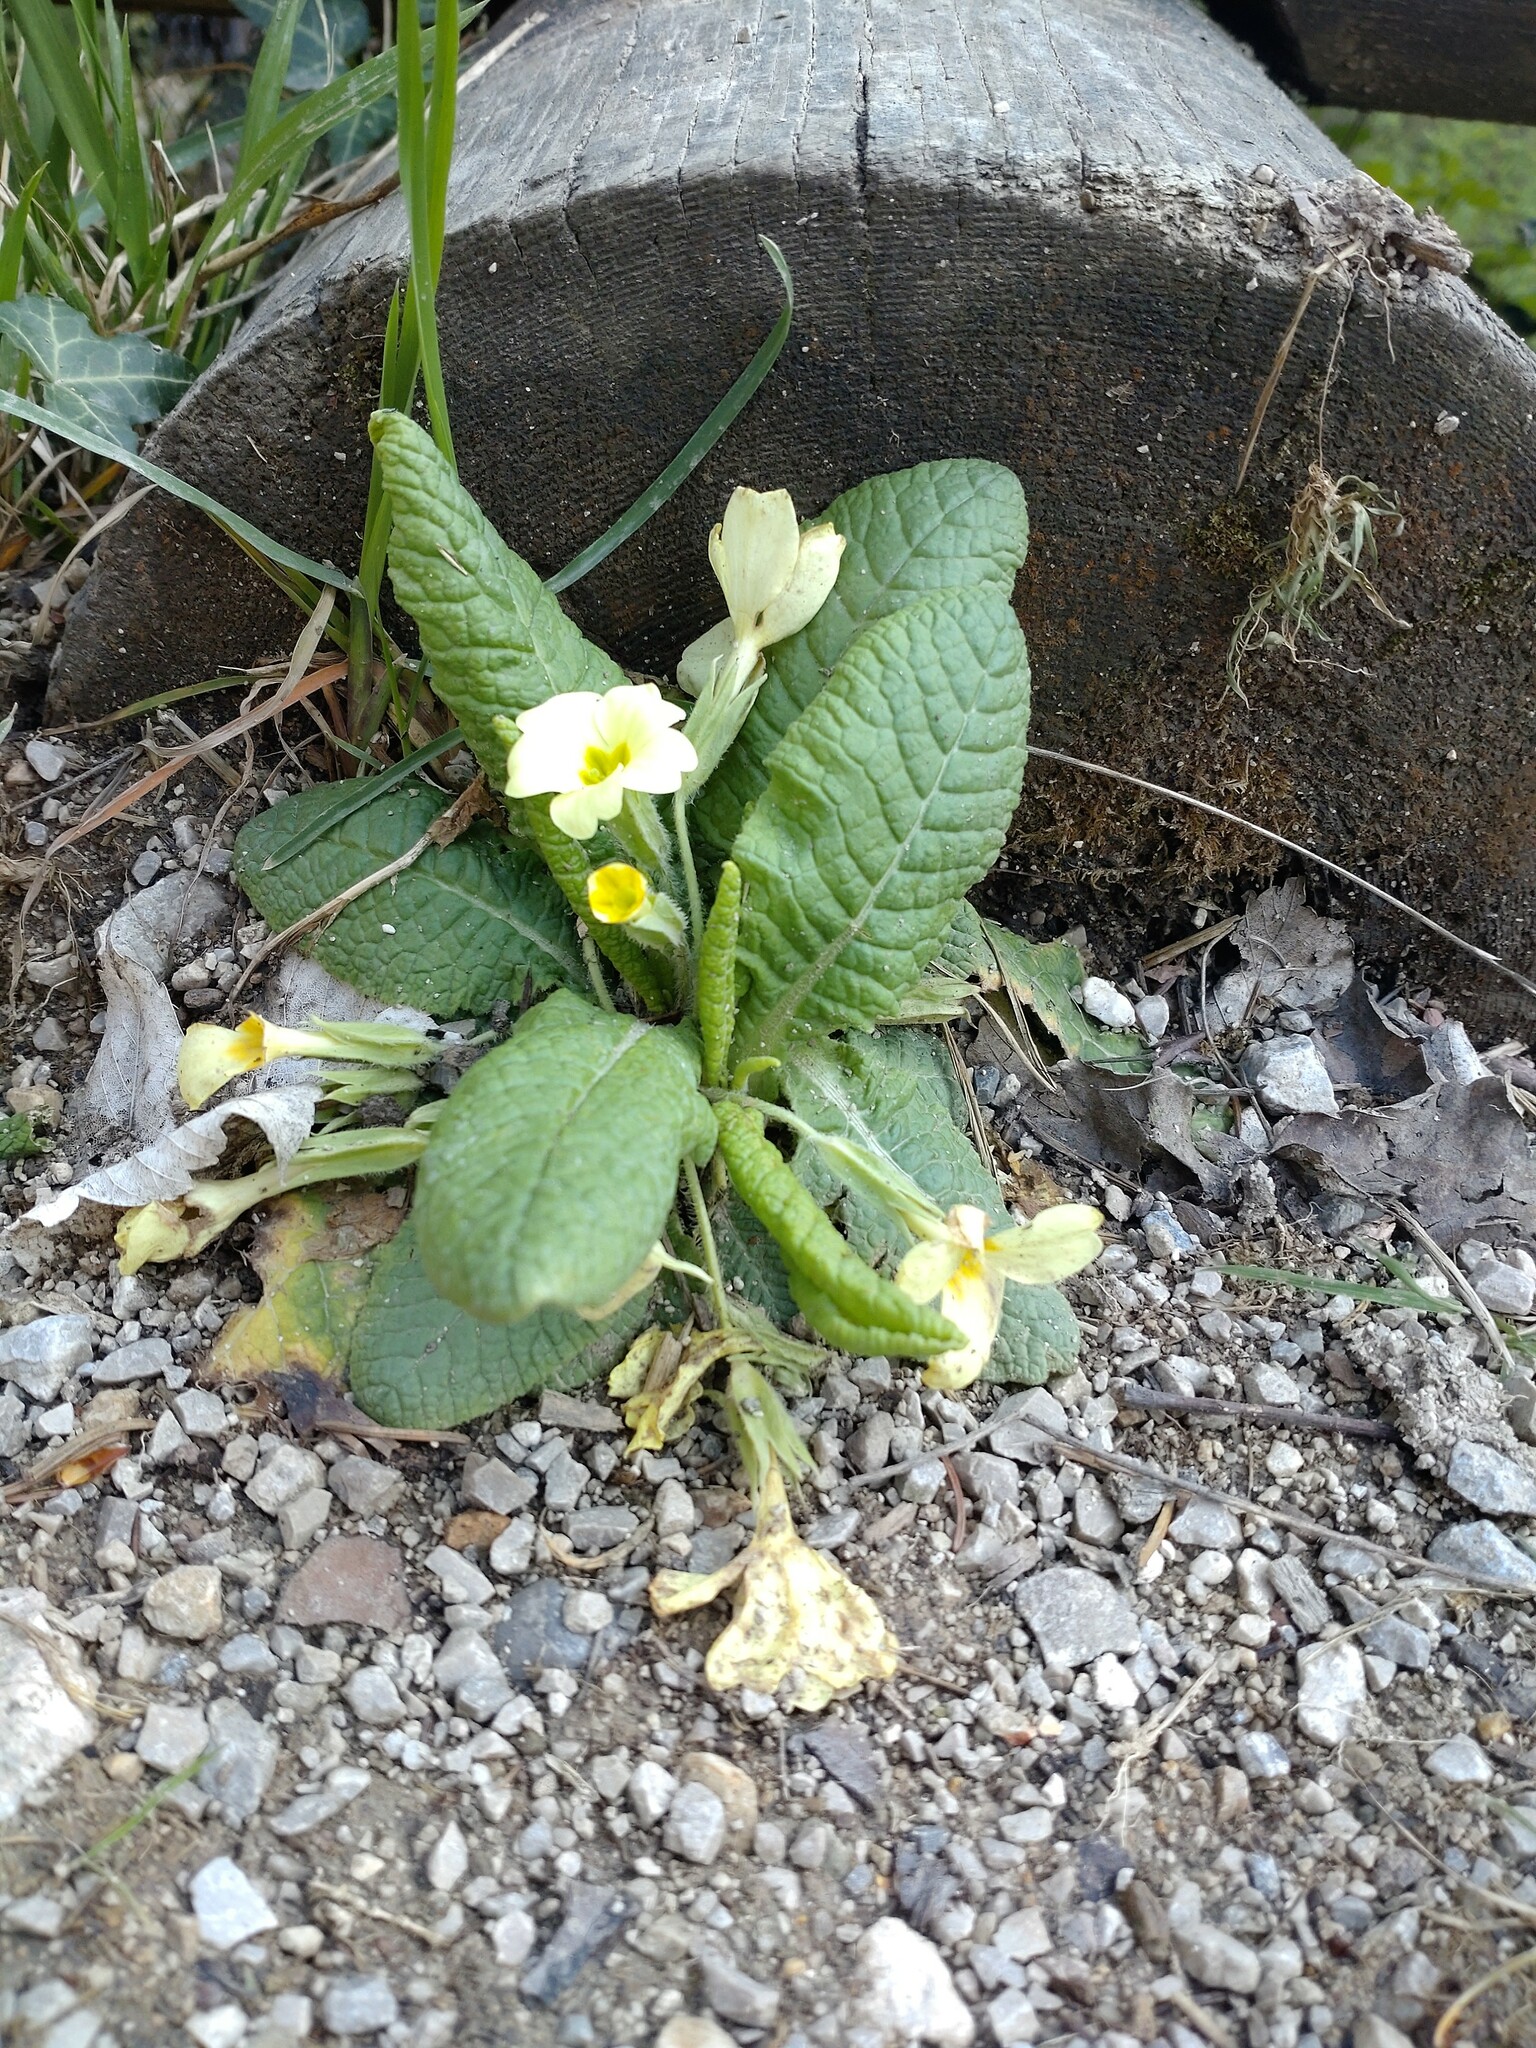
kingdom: Plantae
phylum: Tracheophyta
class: Magnoliopsida
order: Ericales
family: Primulaceae
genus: Primula
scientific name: Primula vulgaris
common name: Primrose
